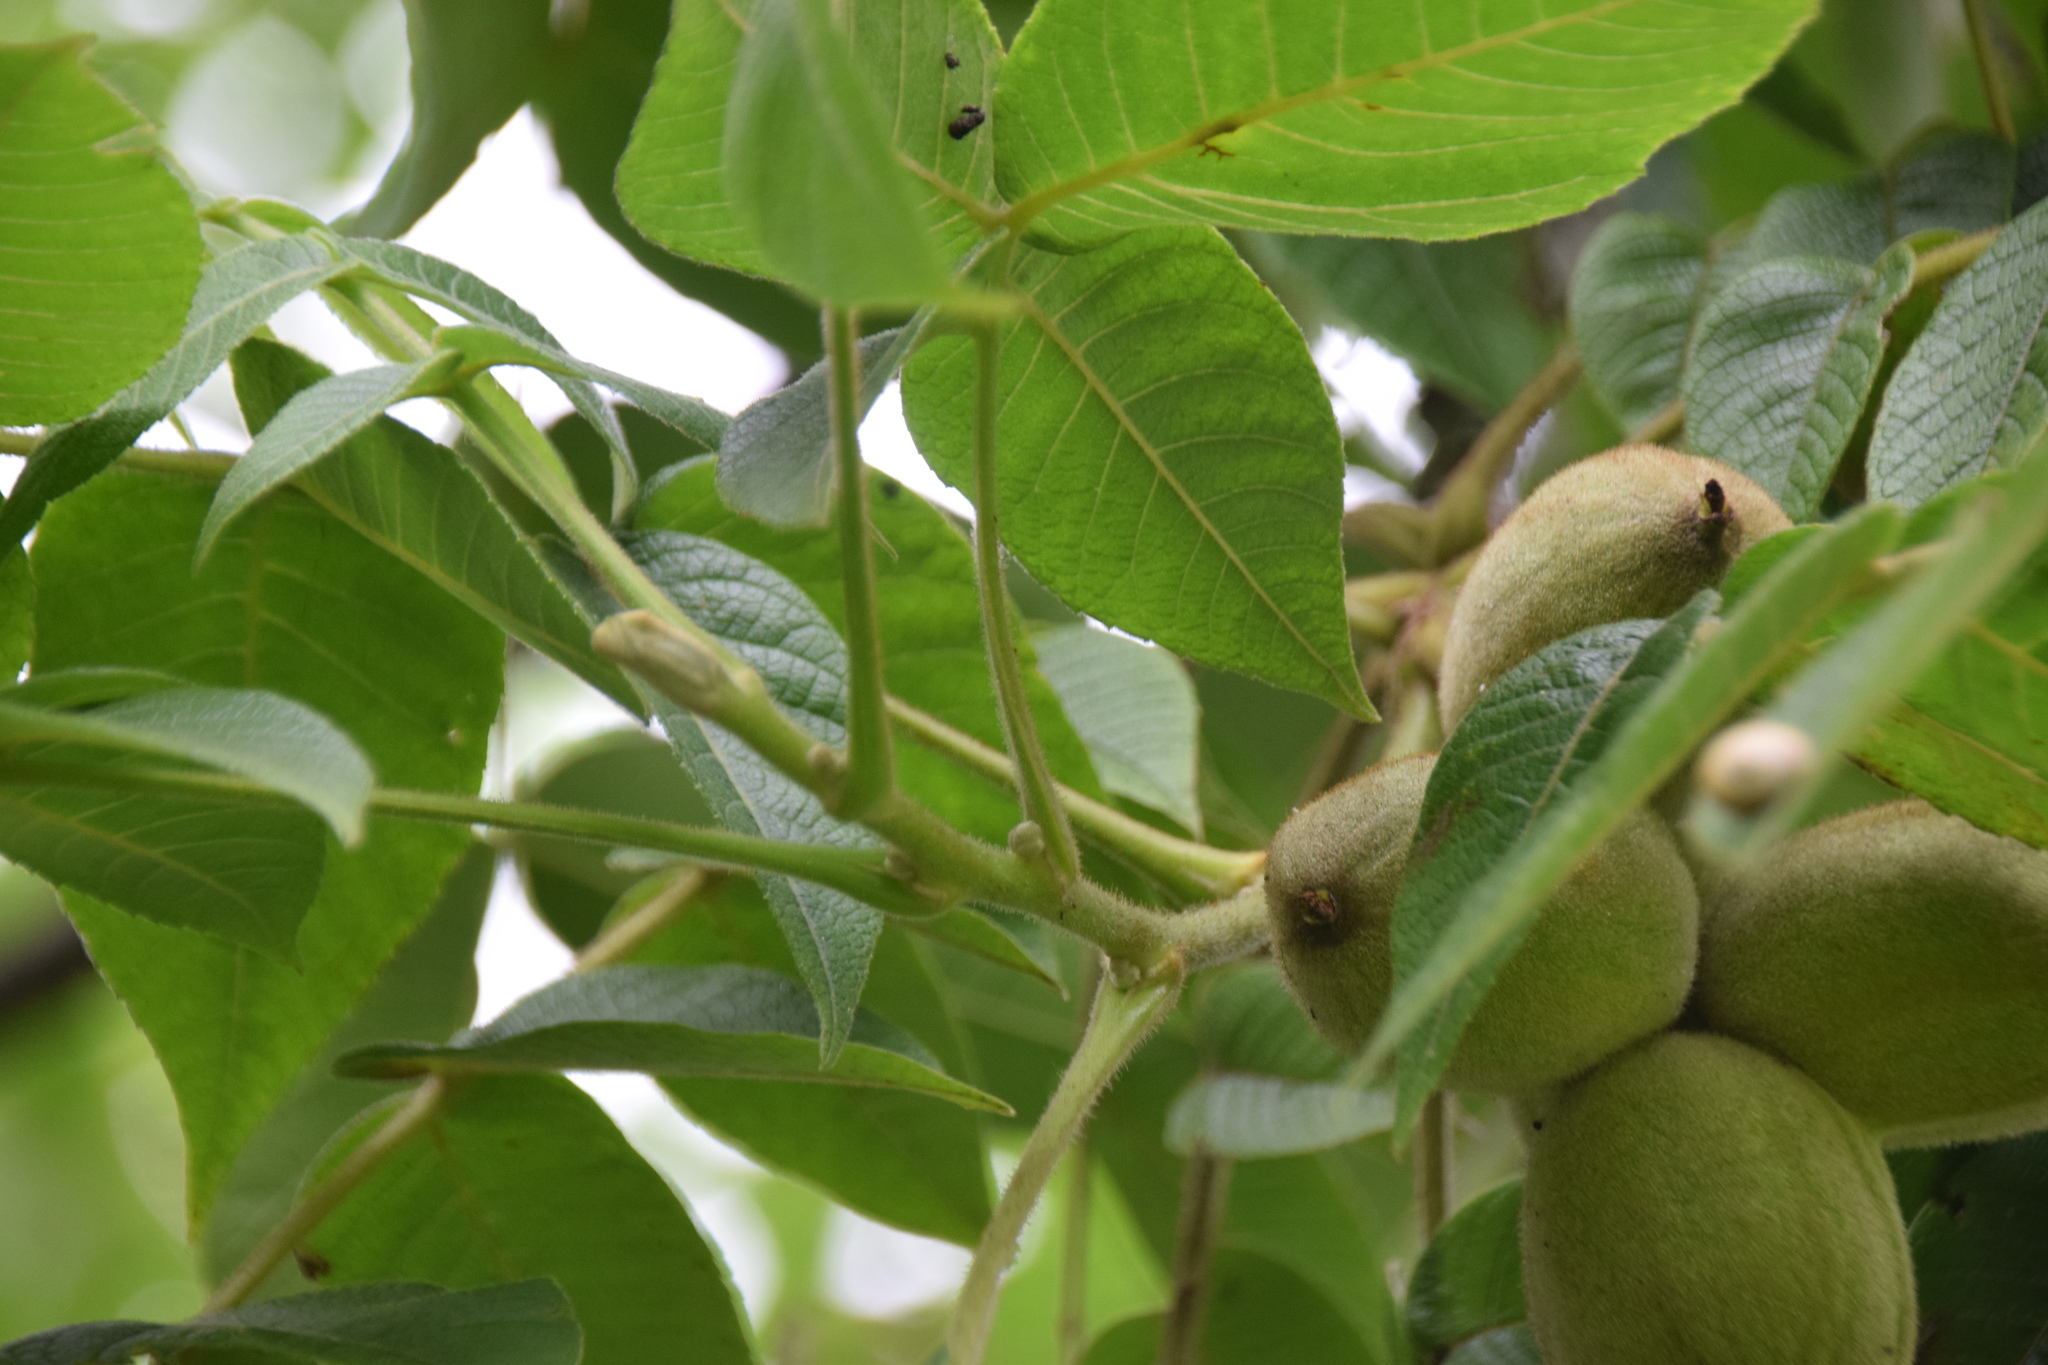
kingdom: Plantae
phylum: Tracheophyta
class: Magnoliopsida
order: Fagales
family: Juglandaceae
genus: Juglans
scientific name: Juglans cinerea
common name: Butternut
